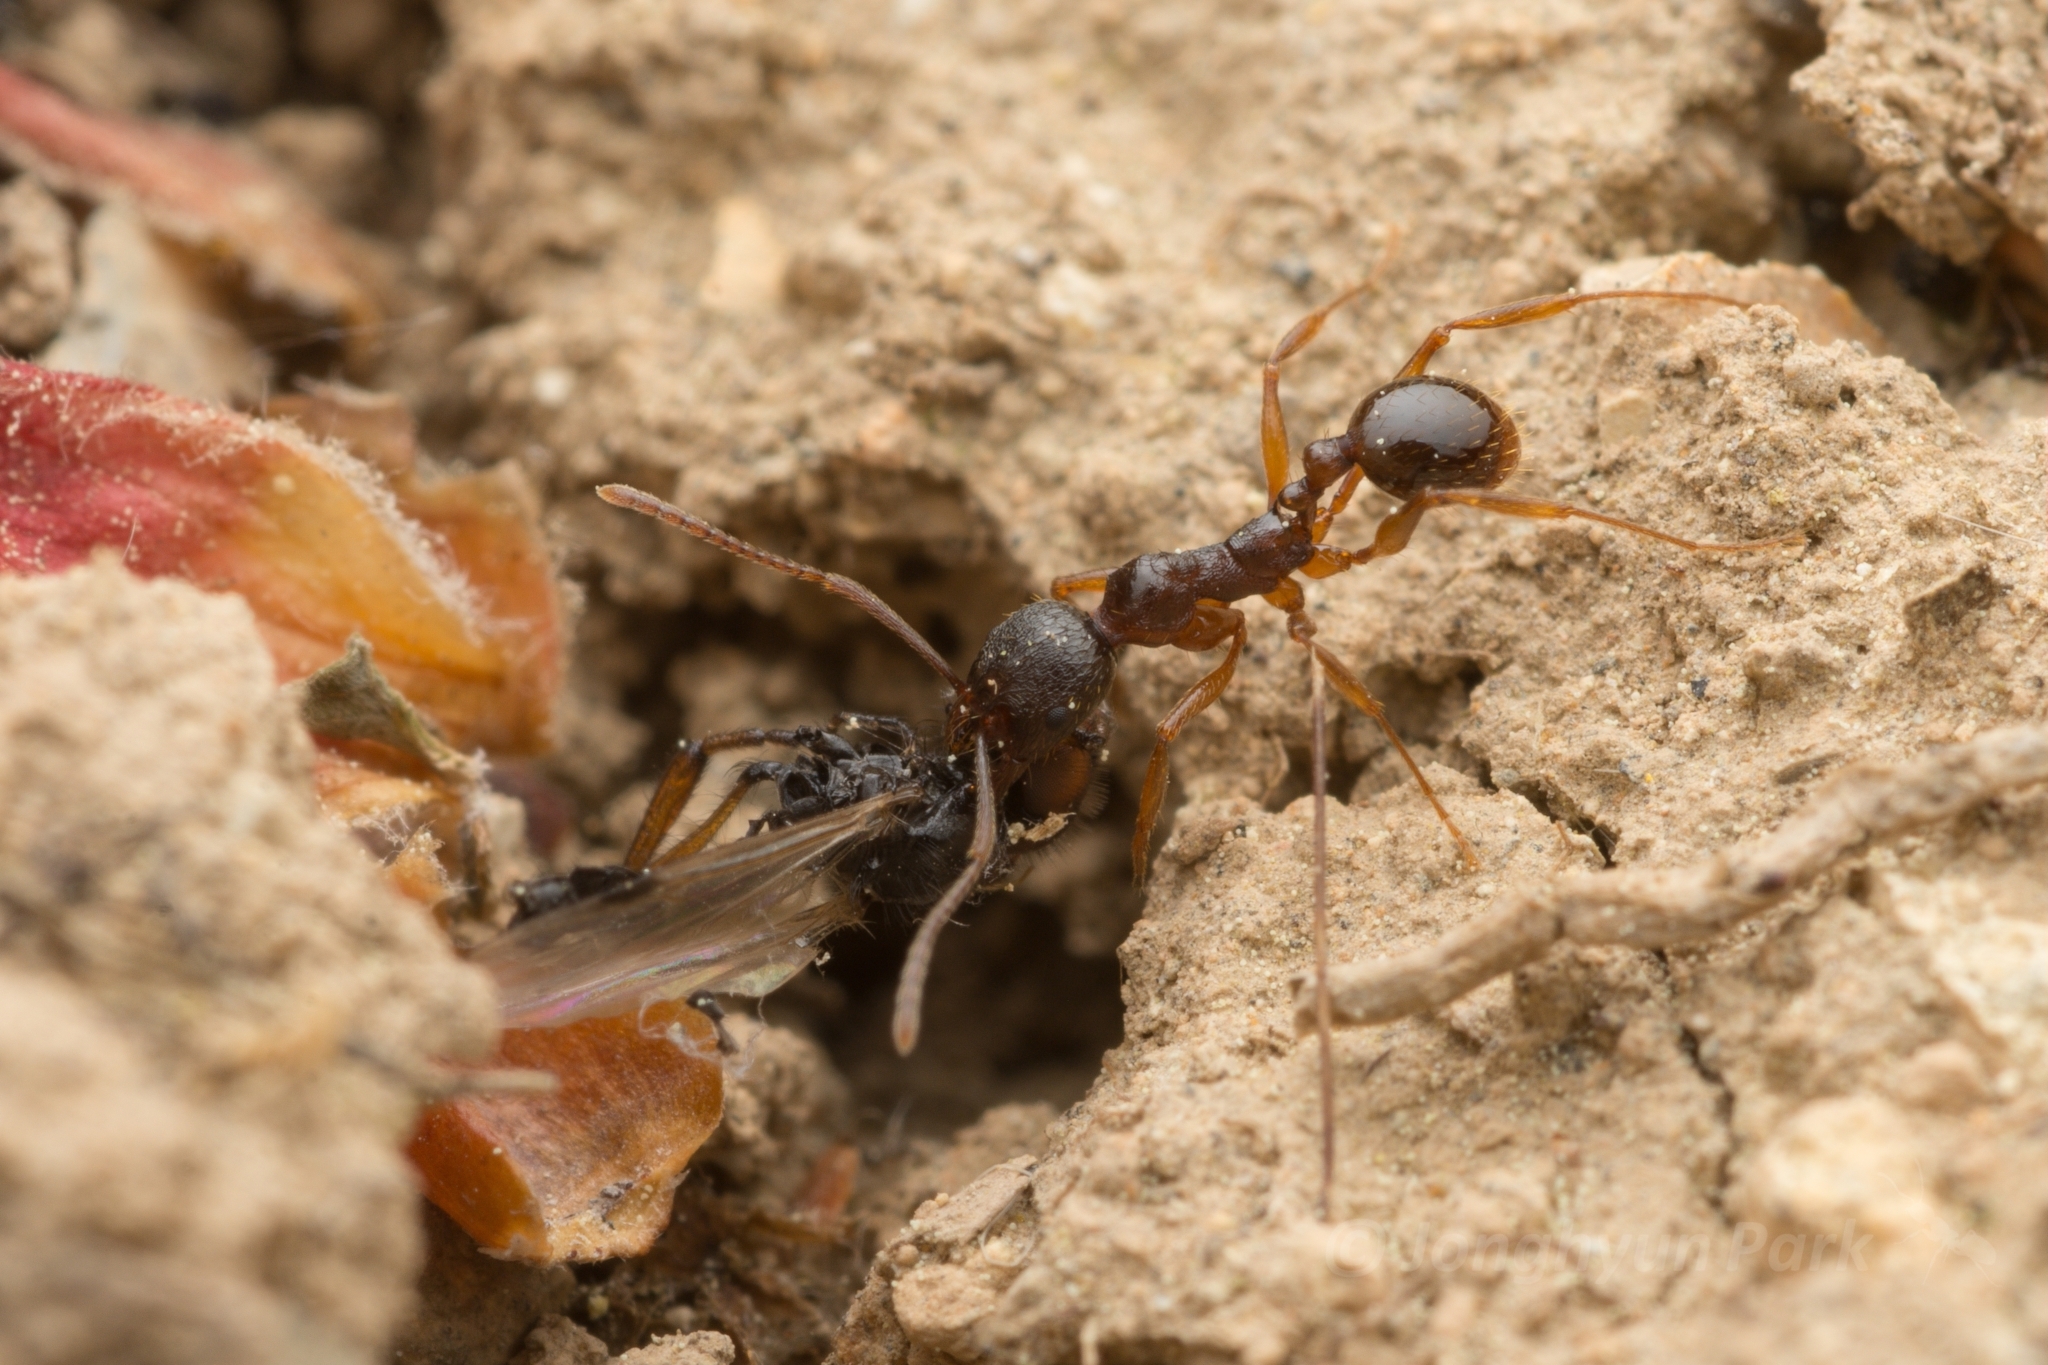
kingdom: Animalia
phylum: Arthropoda
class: Insecta
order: Hymenoptera
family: Formicidae
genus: Aphaenogaster
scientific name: Aphaenogaster japonica
